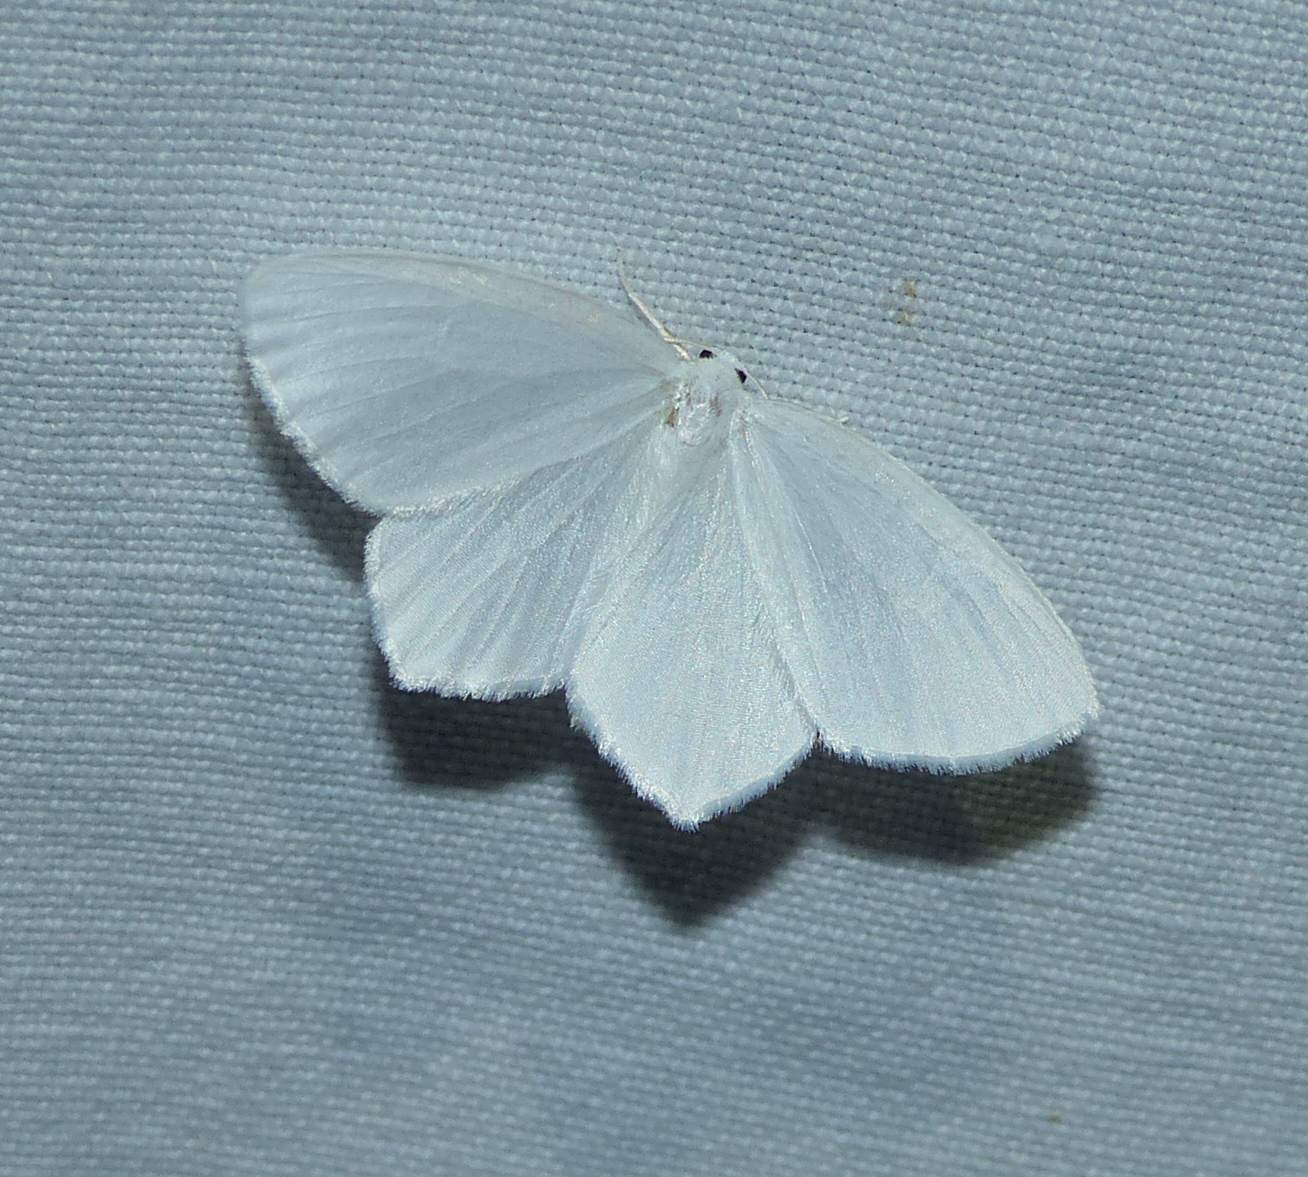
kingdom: Animalia
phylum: Arthropoda
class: Insecta
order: Lepidoptera
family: Geometridae
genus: Eugonobapta
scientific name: Eugonobapta nivosaria
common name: Snowy geometer
